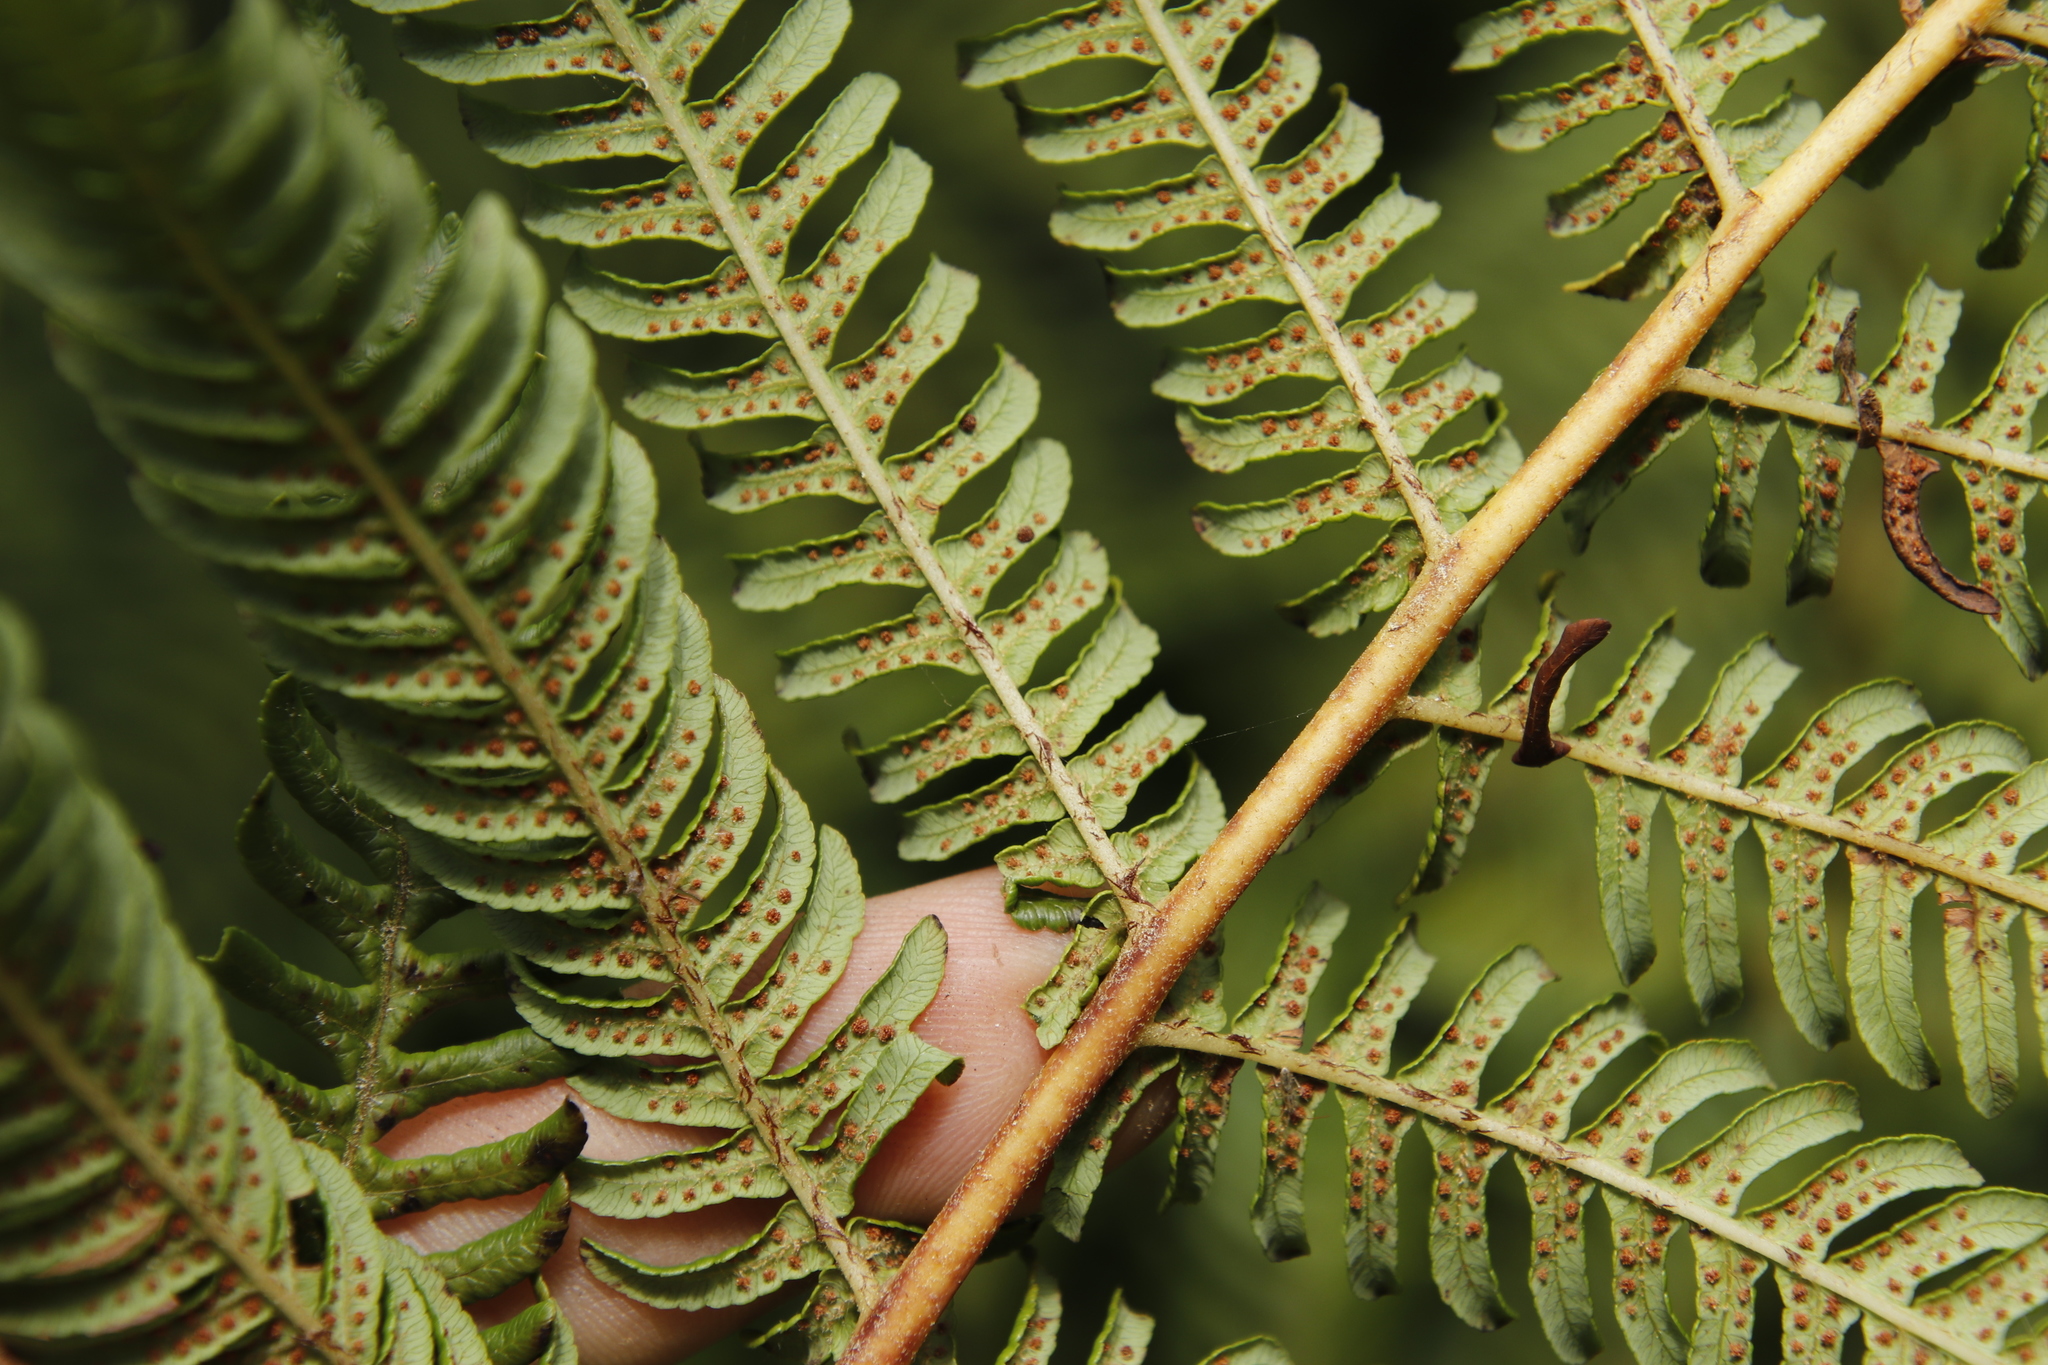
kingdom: Plantae
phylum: Tracheophyta
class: Polypodiopsida
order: Cyatheales
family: Cyatheaceae
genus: Sphaeropteris
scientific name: Sphaeropteris cooperi
